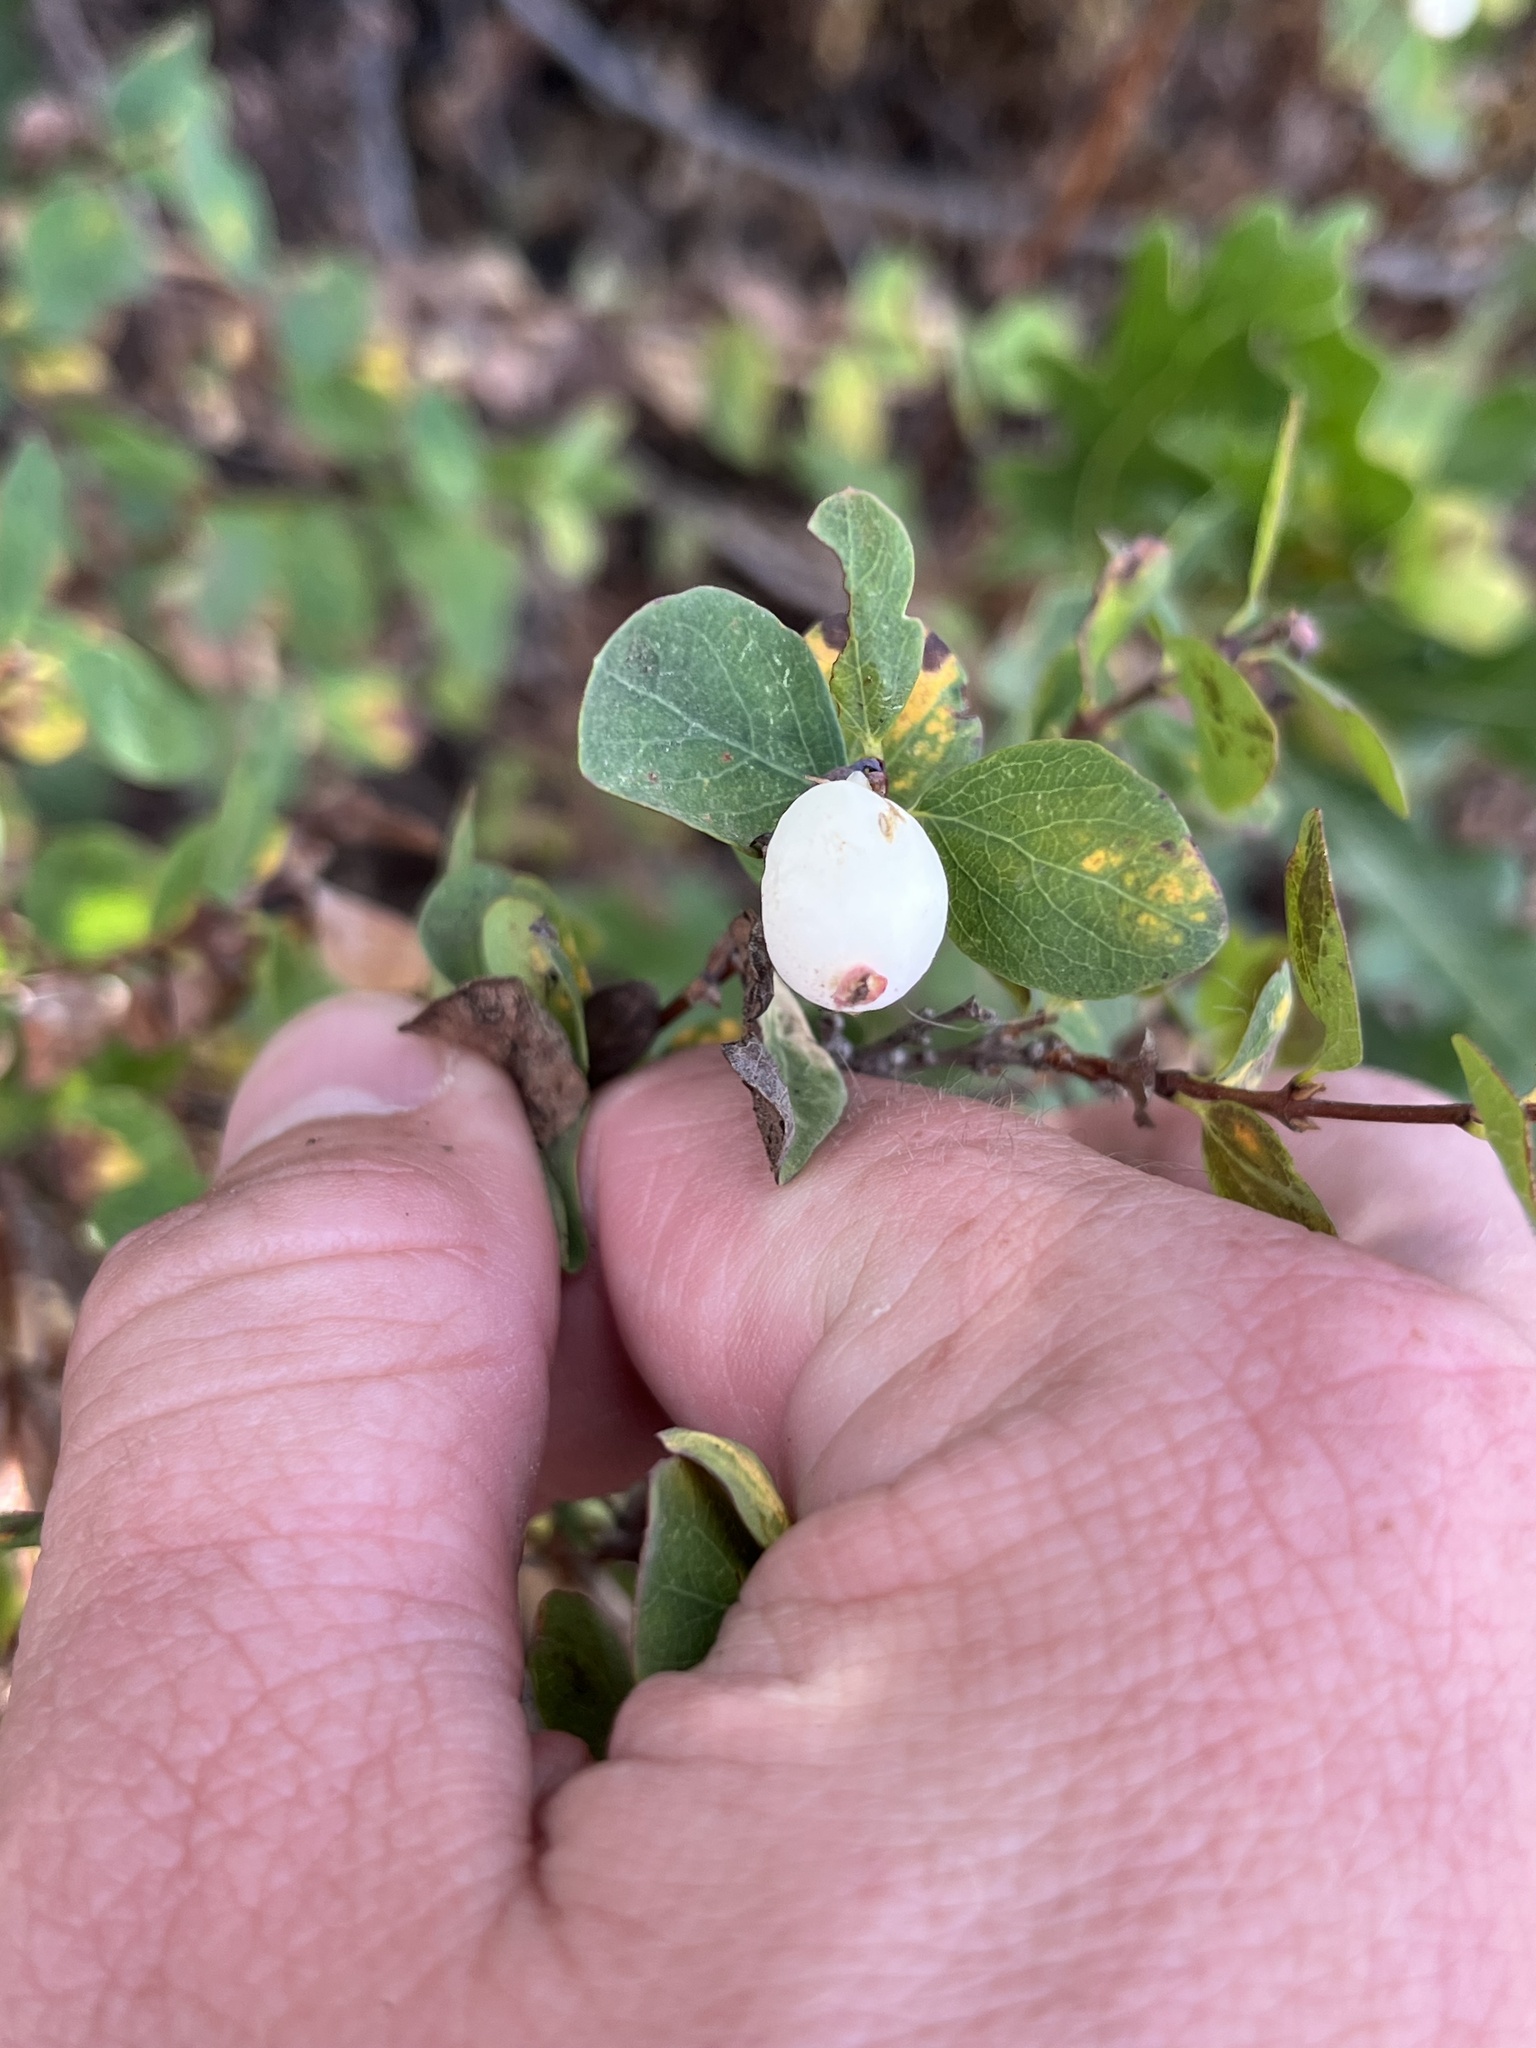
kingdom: Plantae
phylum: Tracheophyta
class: Magnoliopsida
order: Dipsacales
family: Caprifoliaceae
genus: Symphoricarpos
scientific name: Symphoricarpos rotundifolius
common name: Round-leaved snowberry
